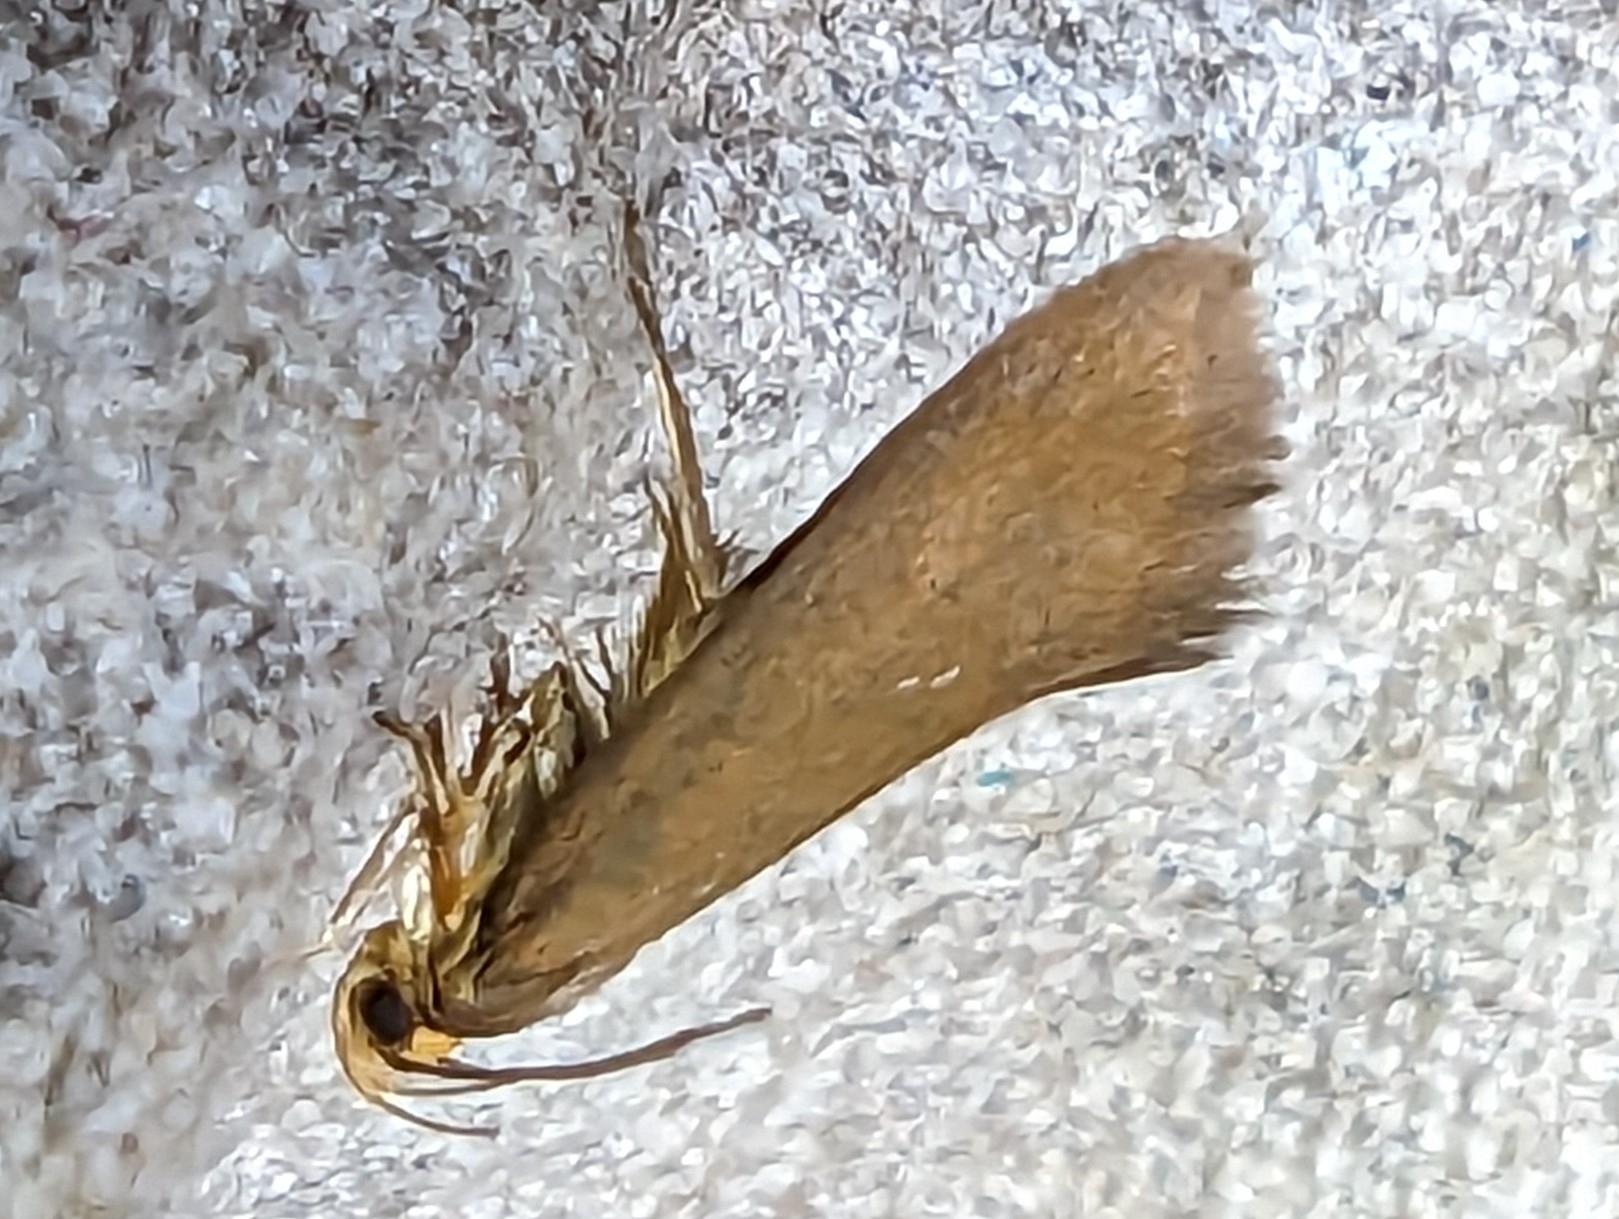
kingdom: Animalia
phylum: Arthropoda
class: Insecta
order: Lepidoptera
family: Oecophoridae
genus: Borkhausenia
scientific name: Borkhausenia Crassa unitella
